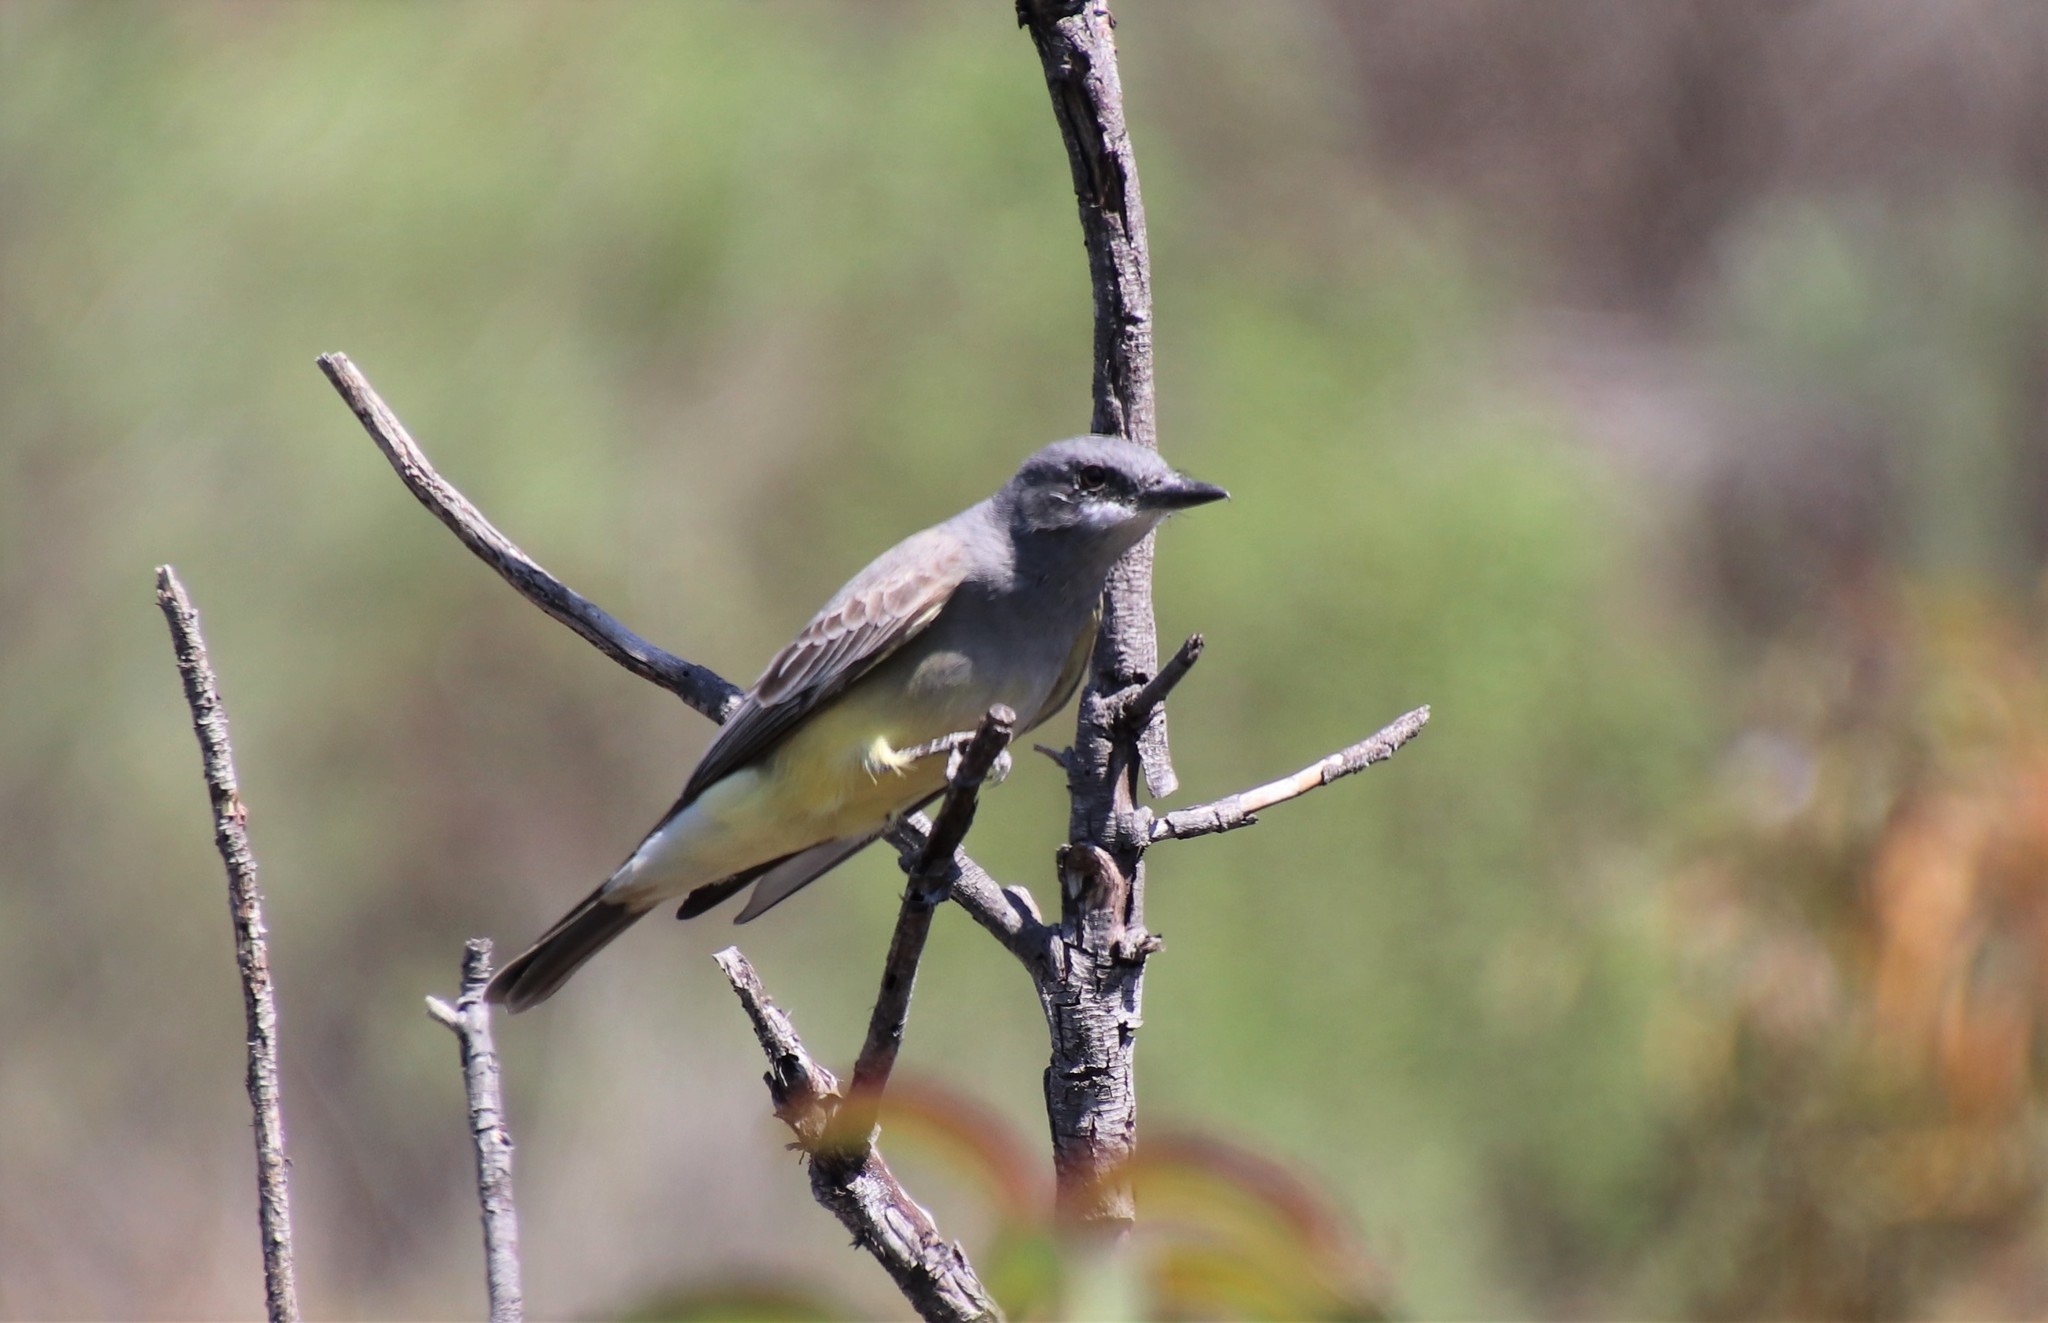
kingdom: Animalia
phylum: Chordata
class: Aves
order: Passeriformes
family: Tyrannidae
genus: Tyrannus
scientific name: Tyrannus vociferans
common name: Cassin's kingbird
